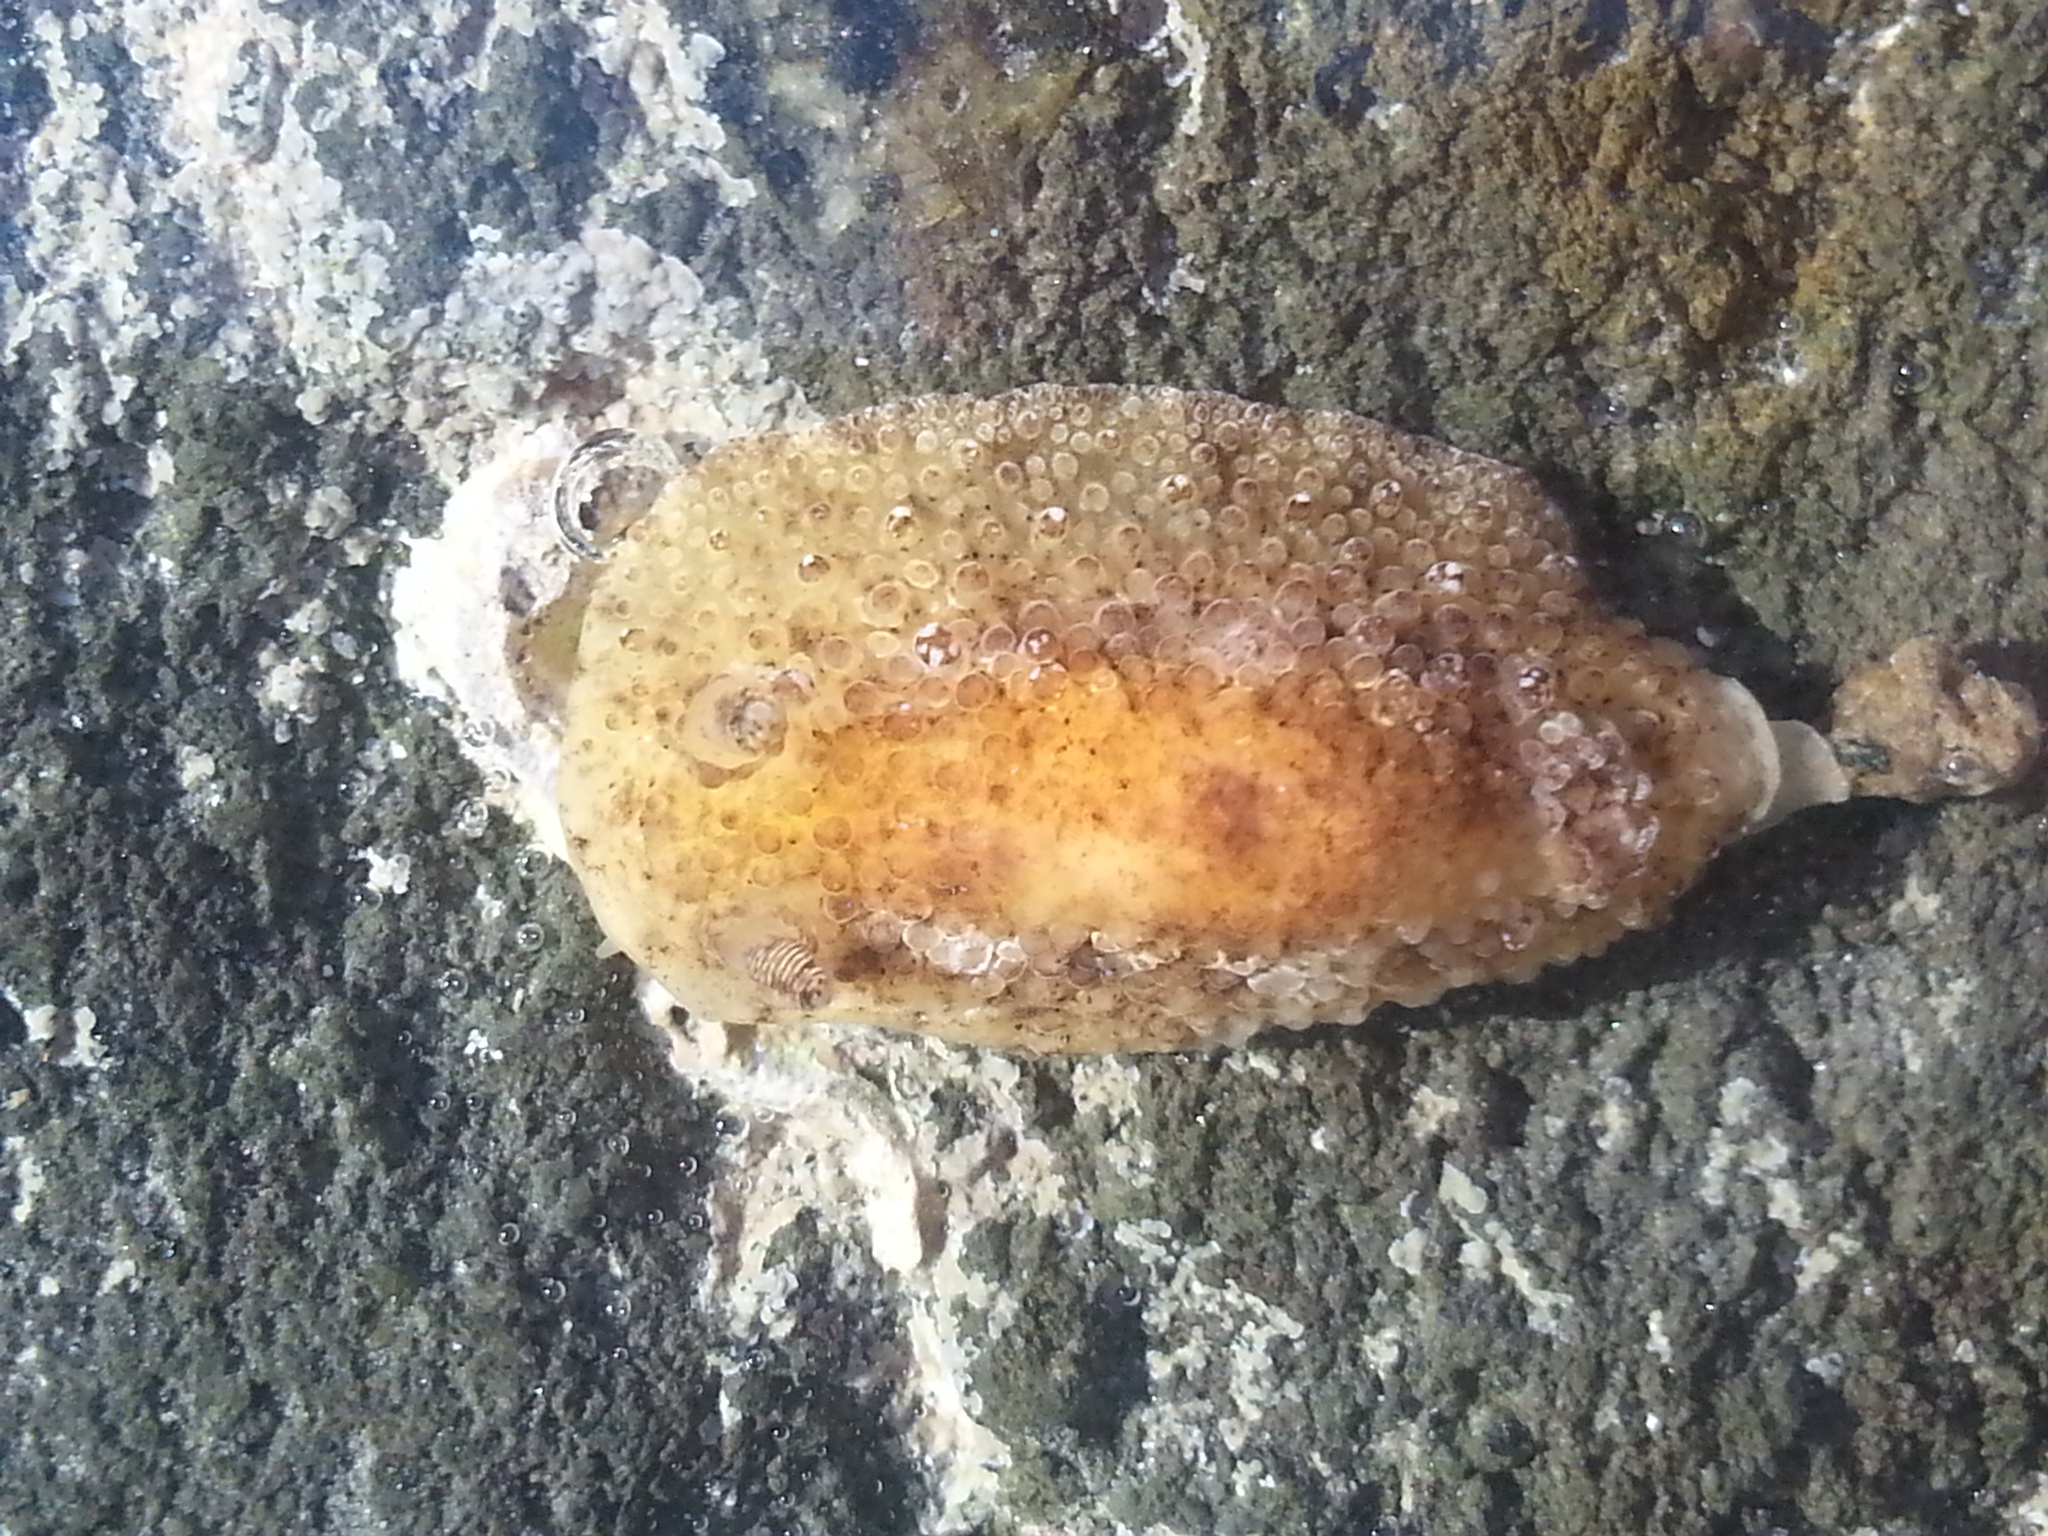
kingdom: Animalia
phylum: Mollusca
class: Gastropoda
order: Nudibranchia
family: Discodorididae
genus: Carminodoris
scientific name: Carminodoris nodulosa
